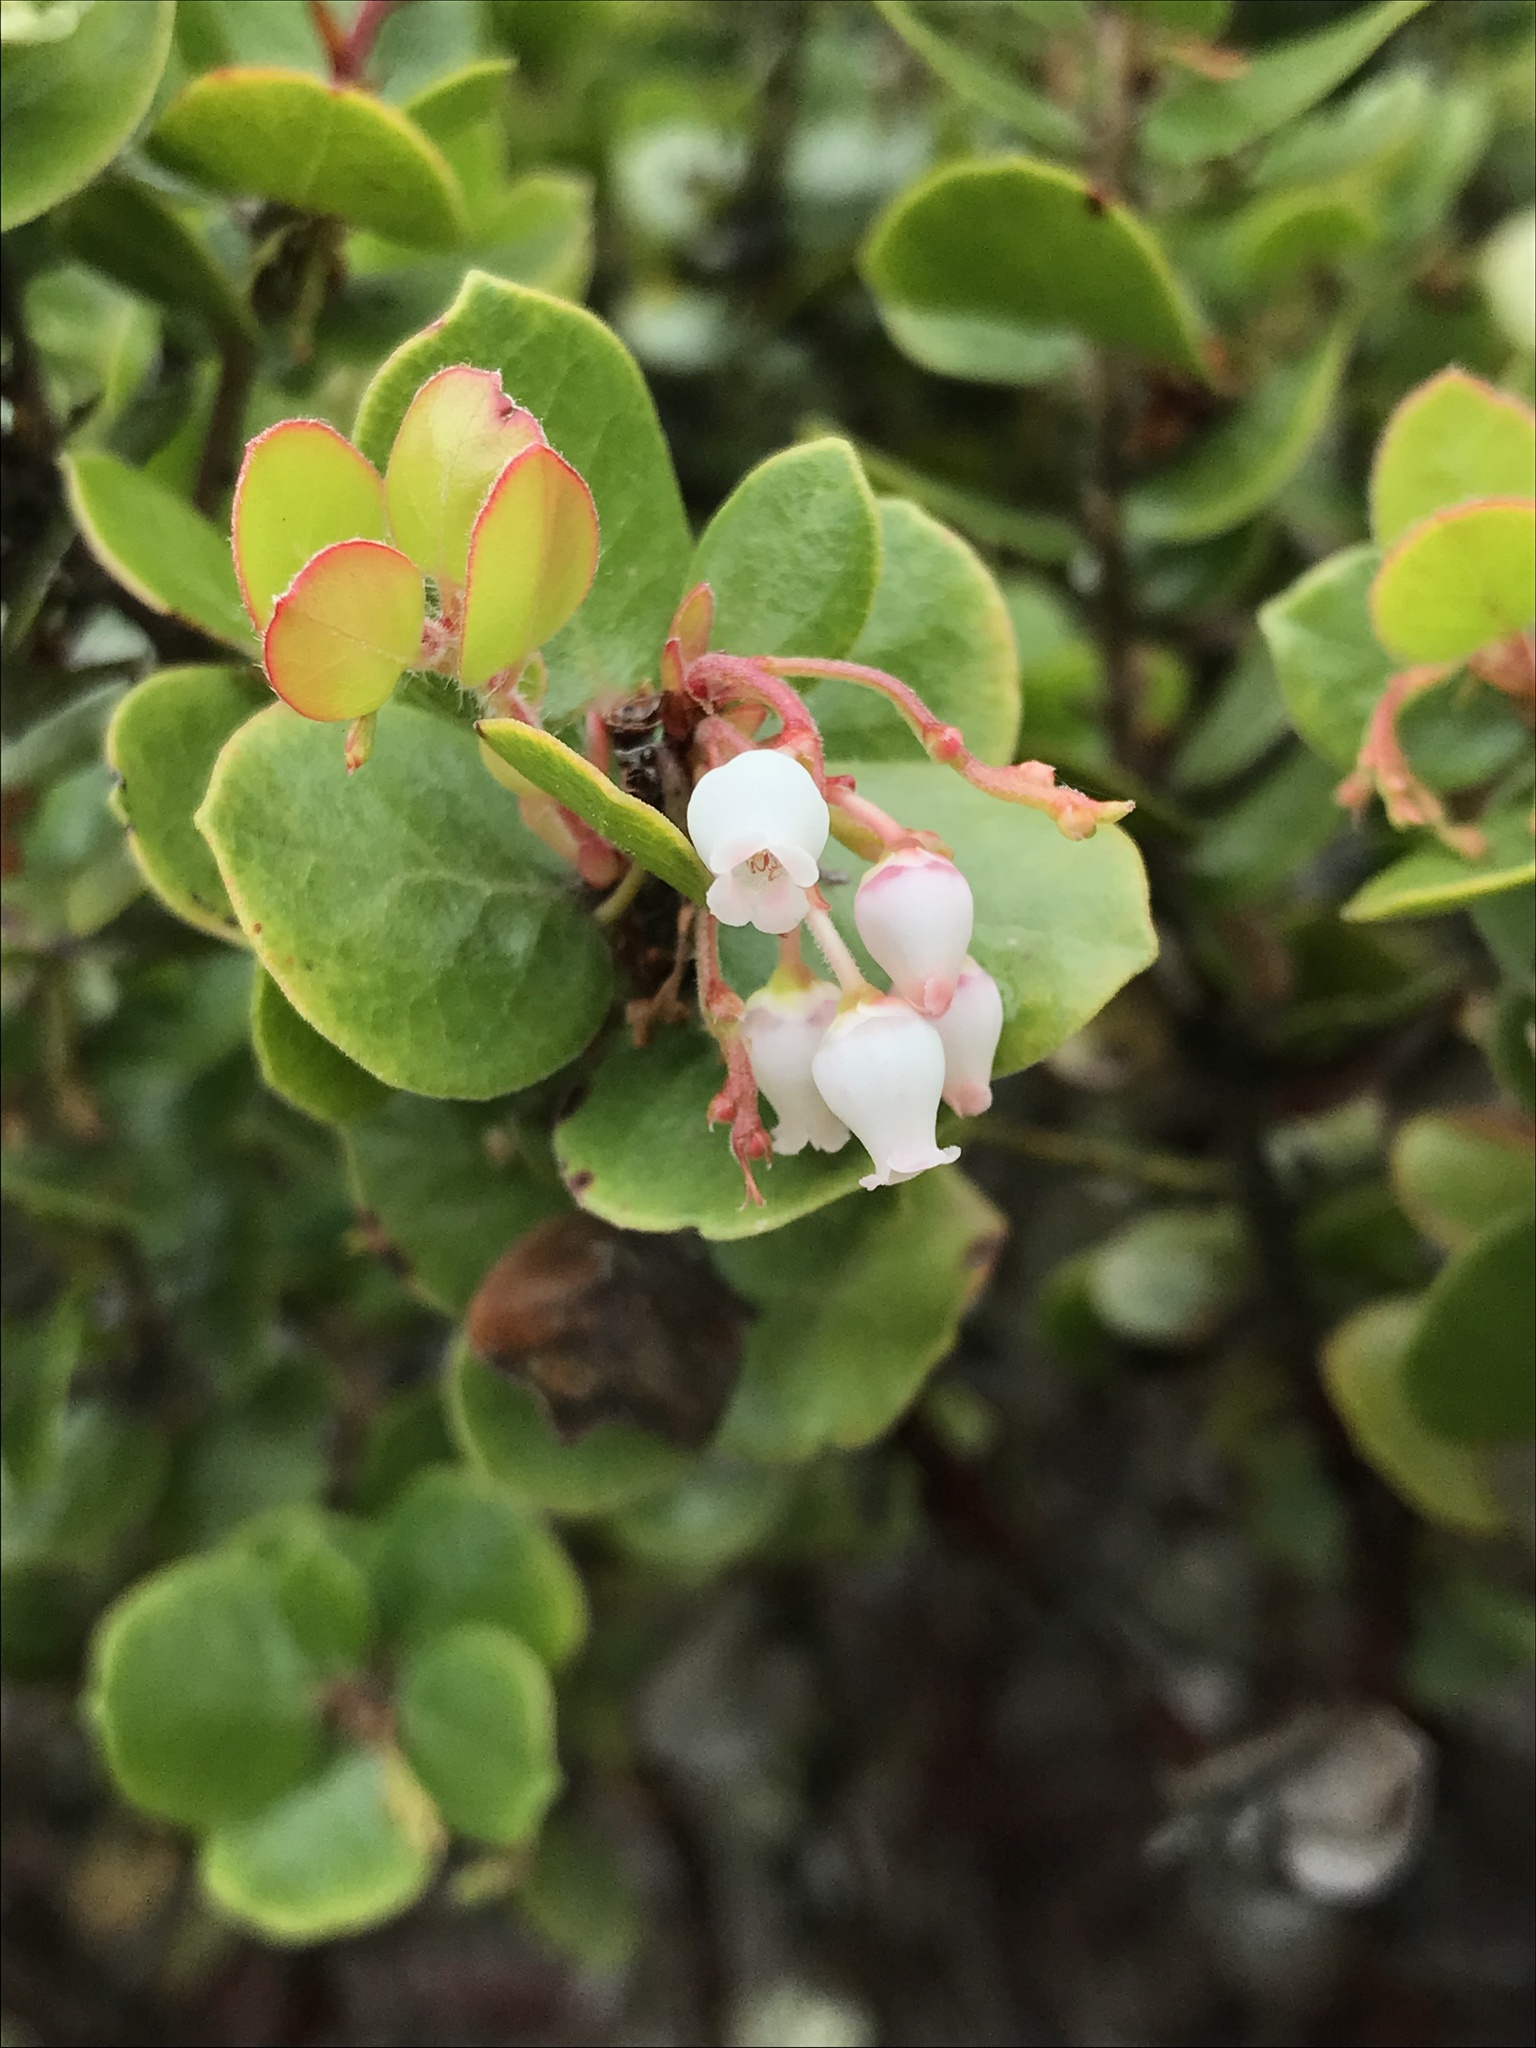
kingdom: Plantae
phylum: Tracheophyta
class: Magnoliopsida
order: Ericales
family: Ericaceae
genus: Arctostaphylos
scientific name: Arctostaphylos nummularia
